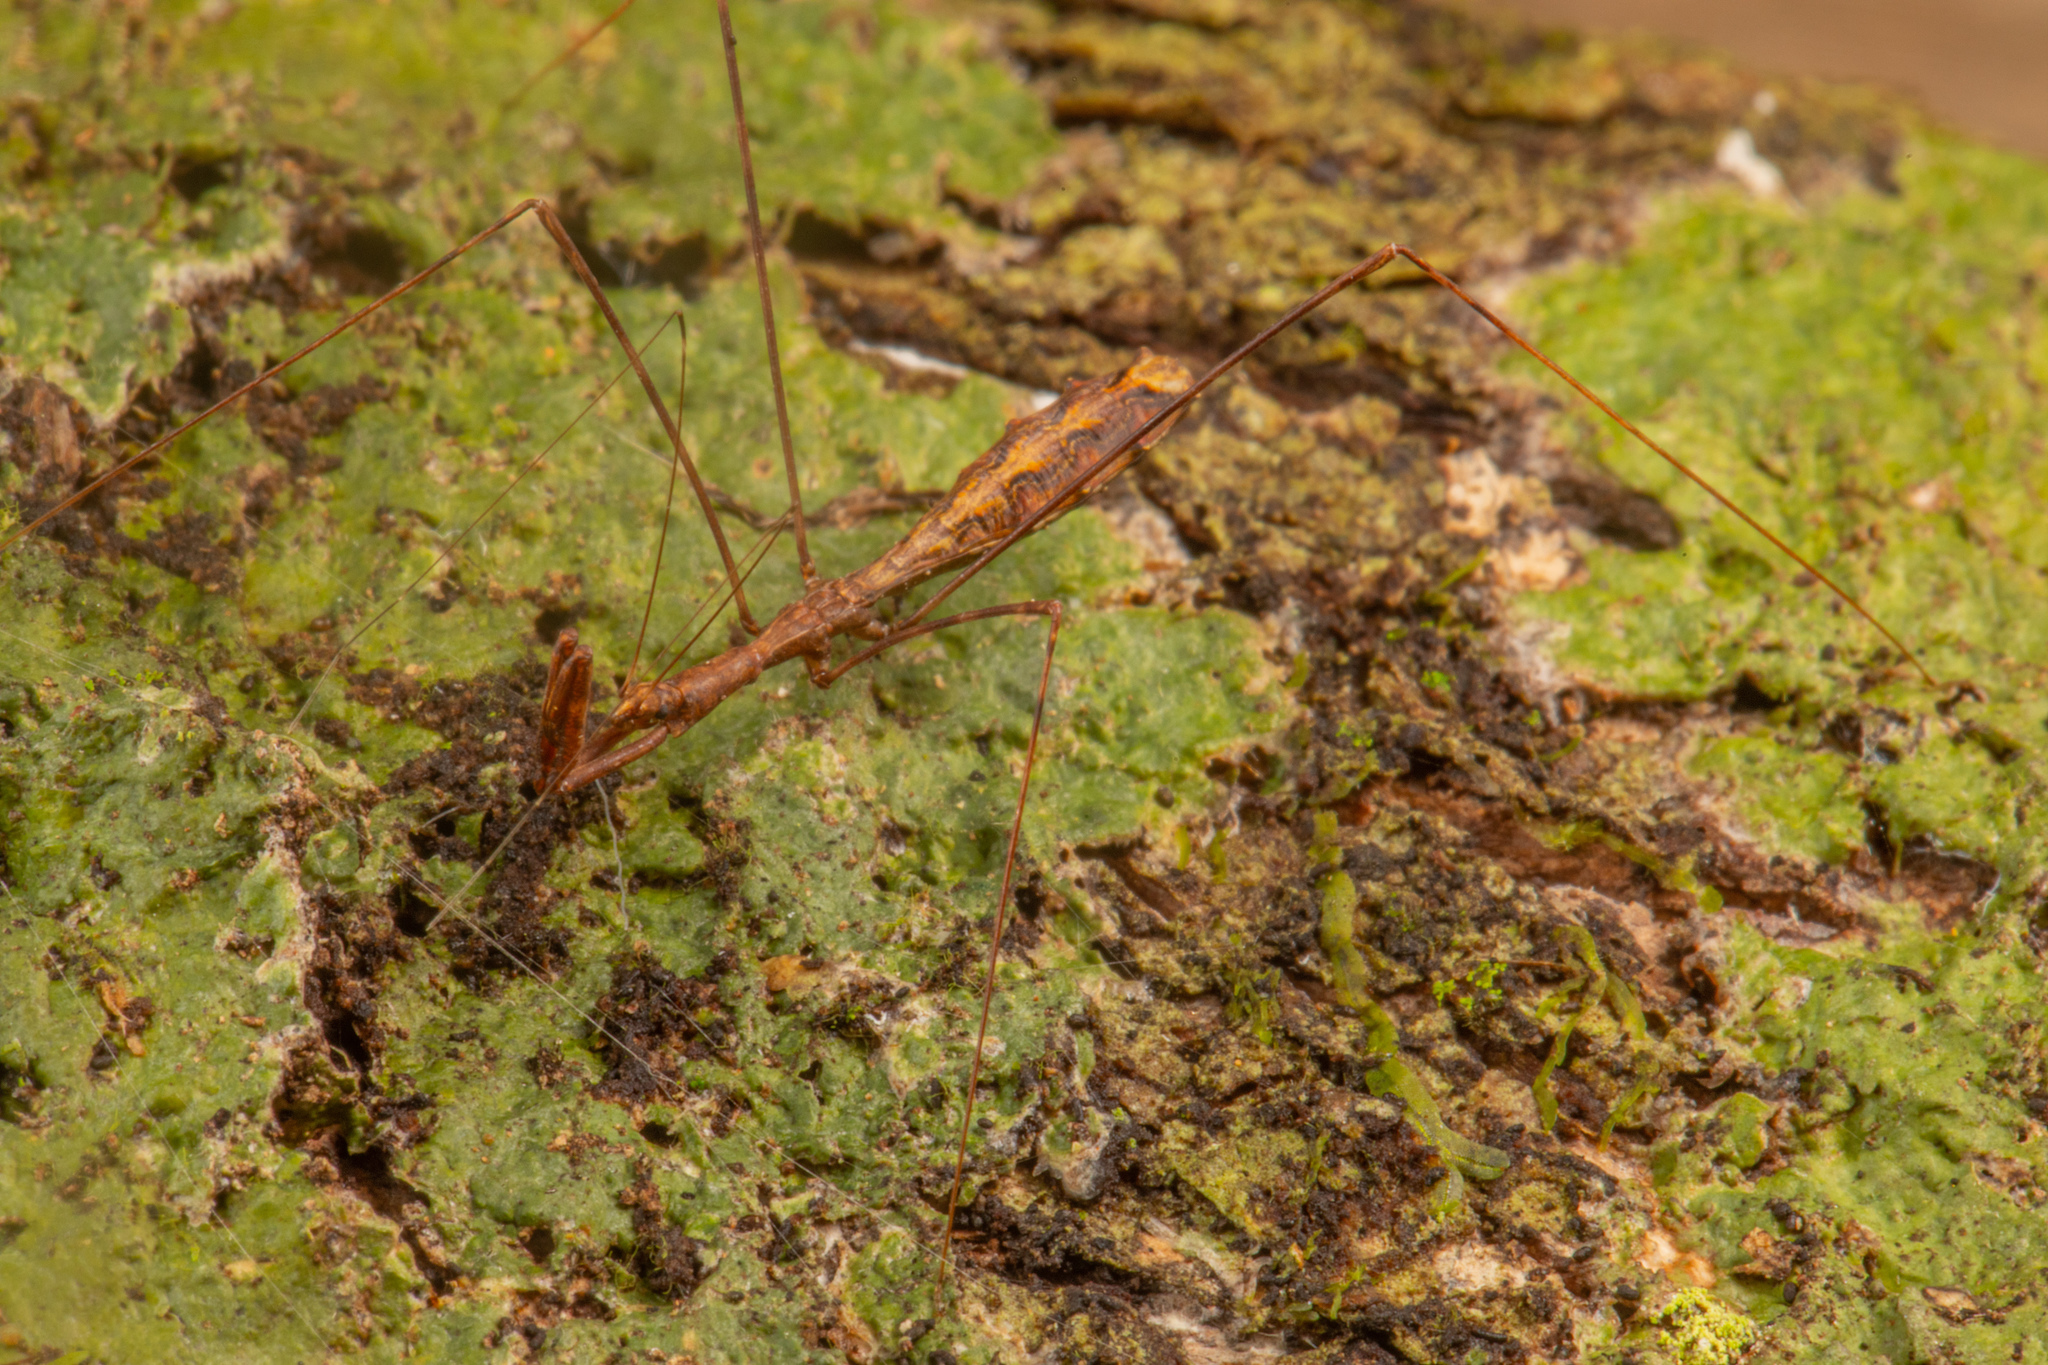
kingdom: Animalia
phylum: Arthropoda
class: Insecta
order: Hemiptera
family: Reduviidae
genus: Ploiaria
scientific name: Ploiaria antipodum
